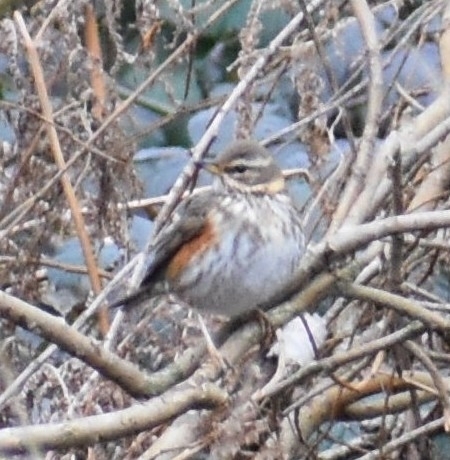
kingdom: Animalia
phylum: Chordata
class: Aves
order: Passeriformes
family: Turdidae
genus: Turdus
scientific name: Turdus iliacus
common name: Redwing
